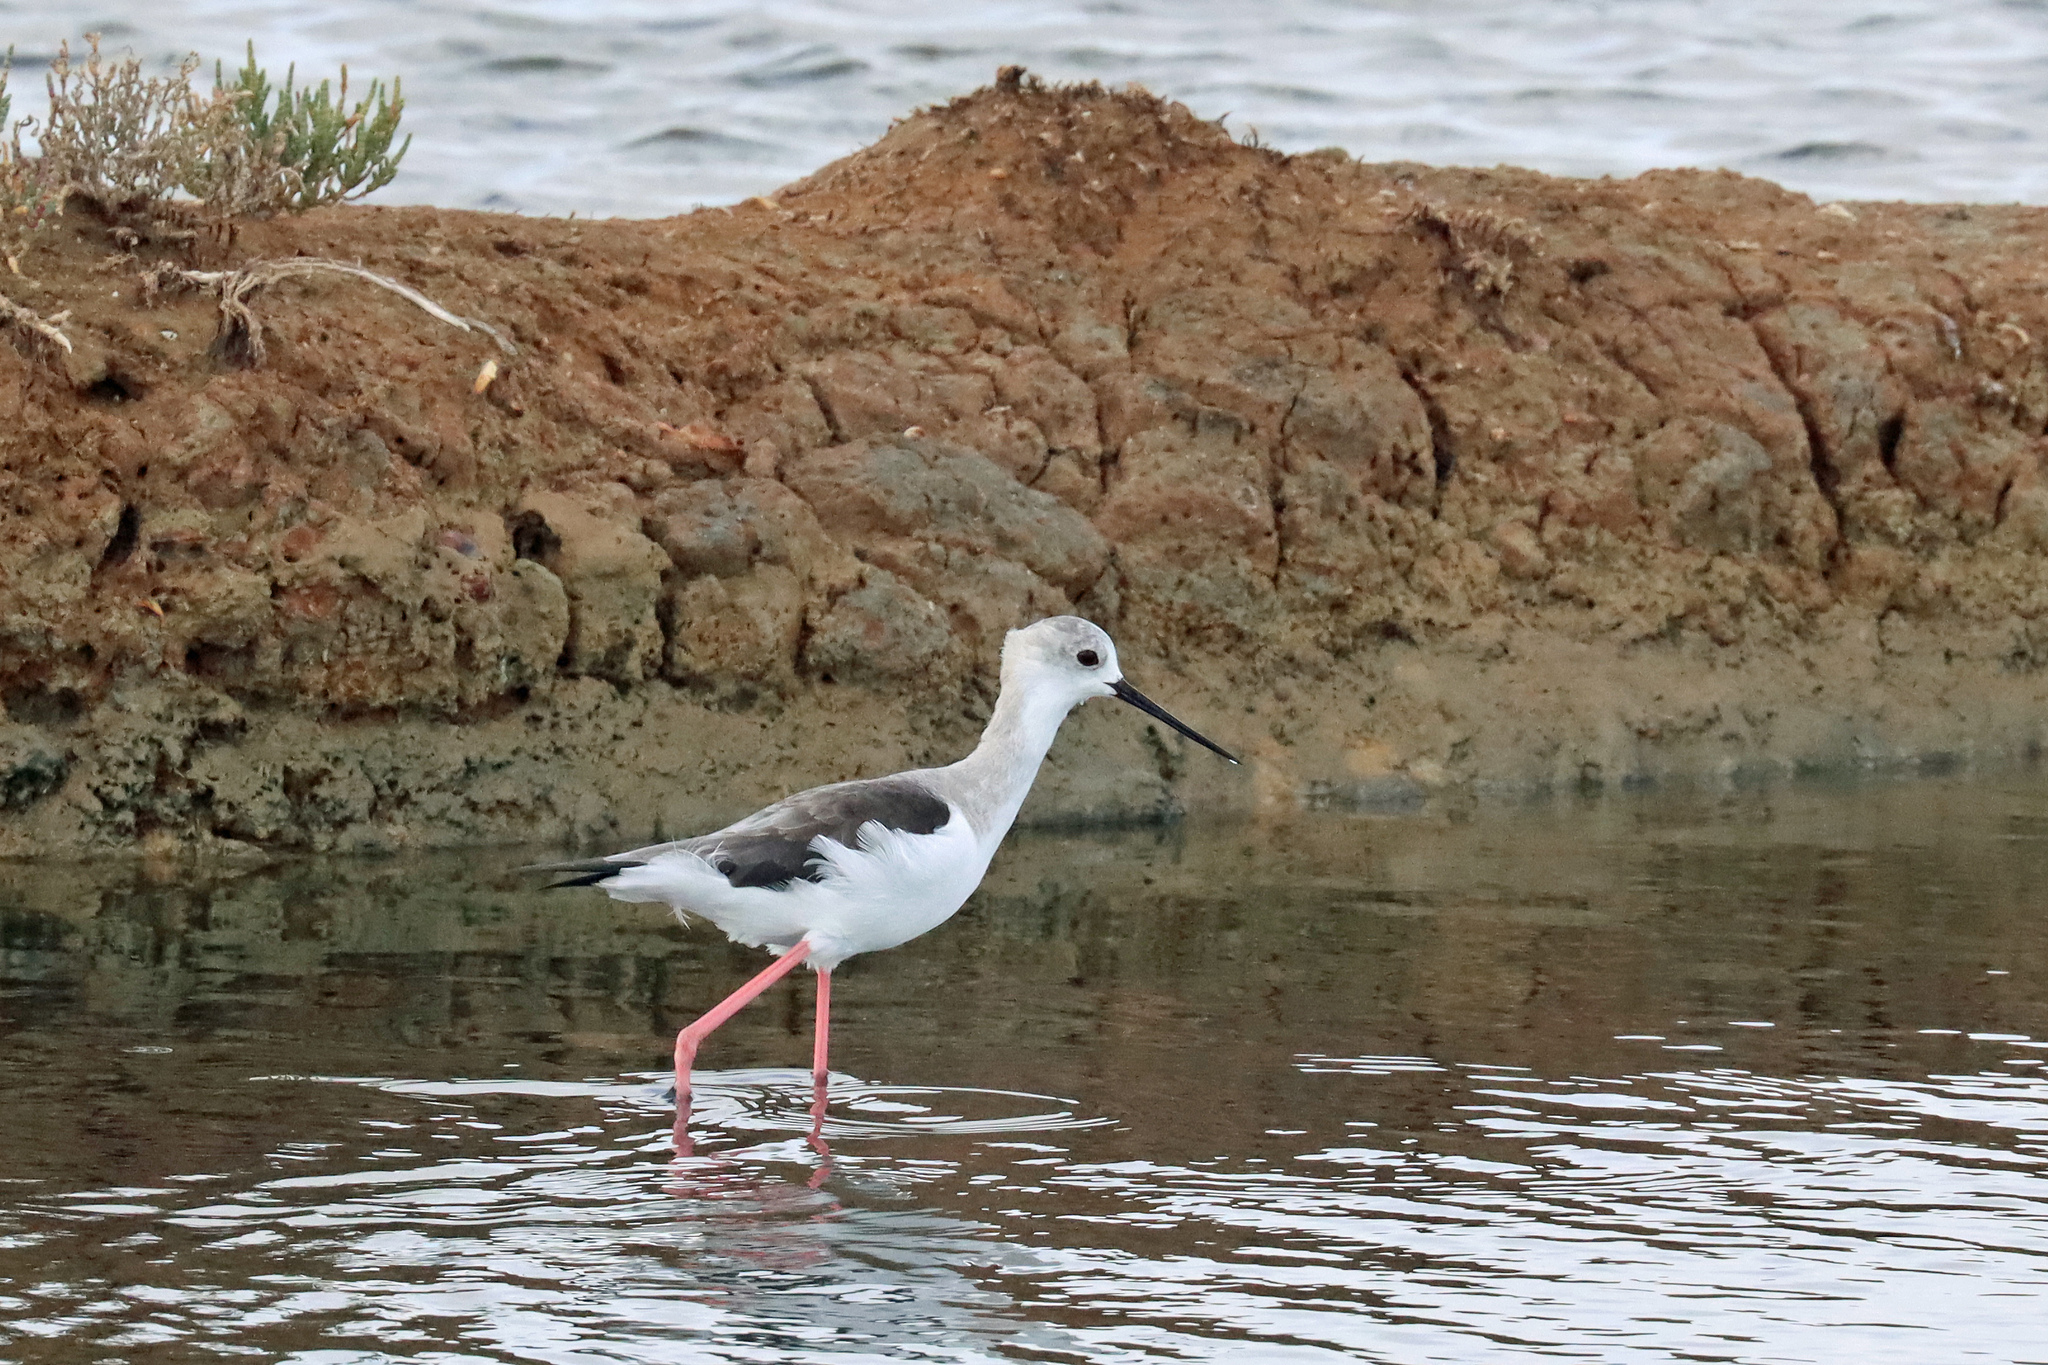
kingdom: Animalia
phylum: Chordata
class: Aves
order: Charadriiformes
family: Recurvirostridae
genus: Himantopus
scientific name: Himantopus himantopus
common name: Black-winged stilt
